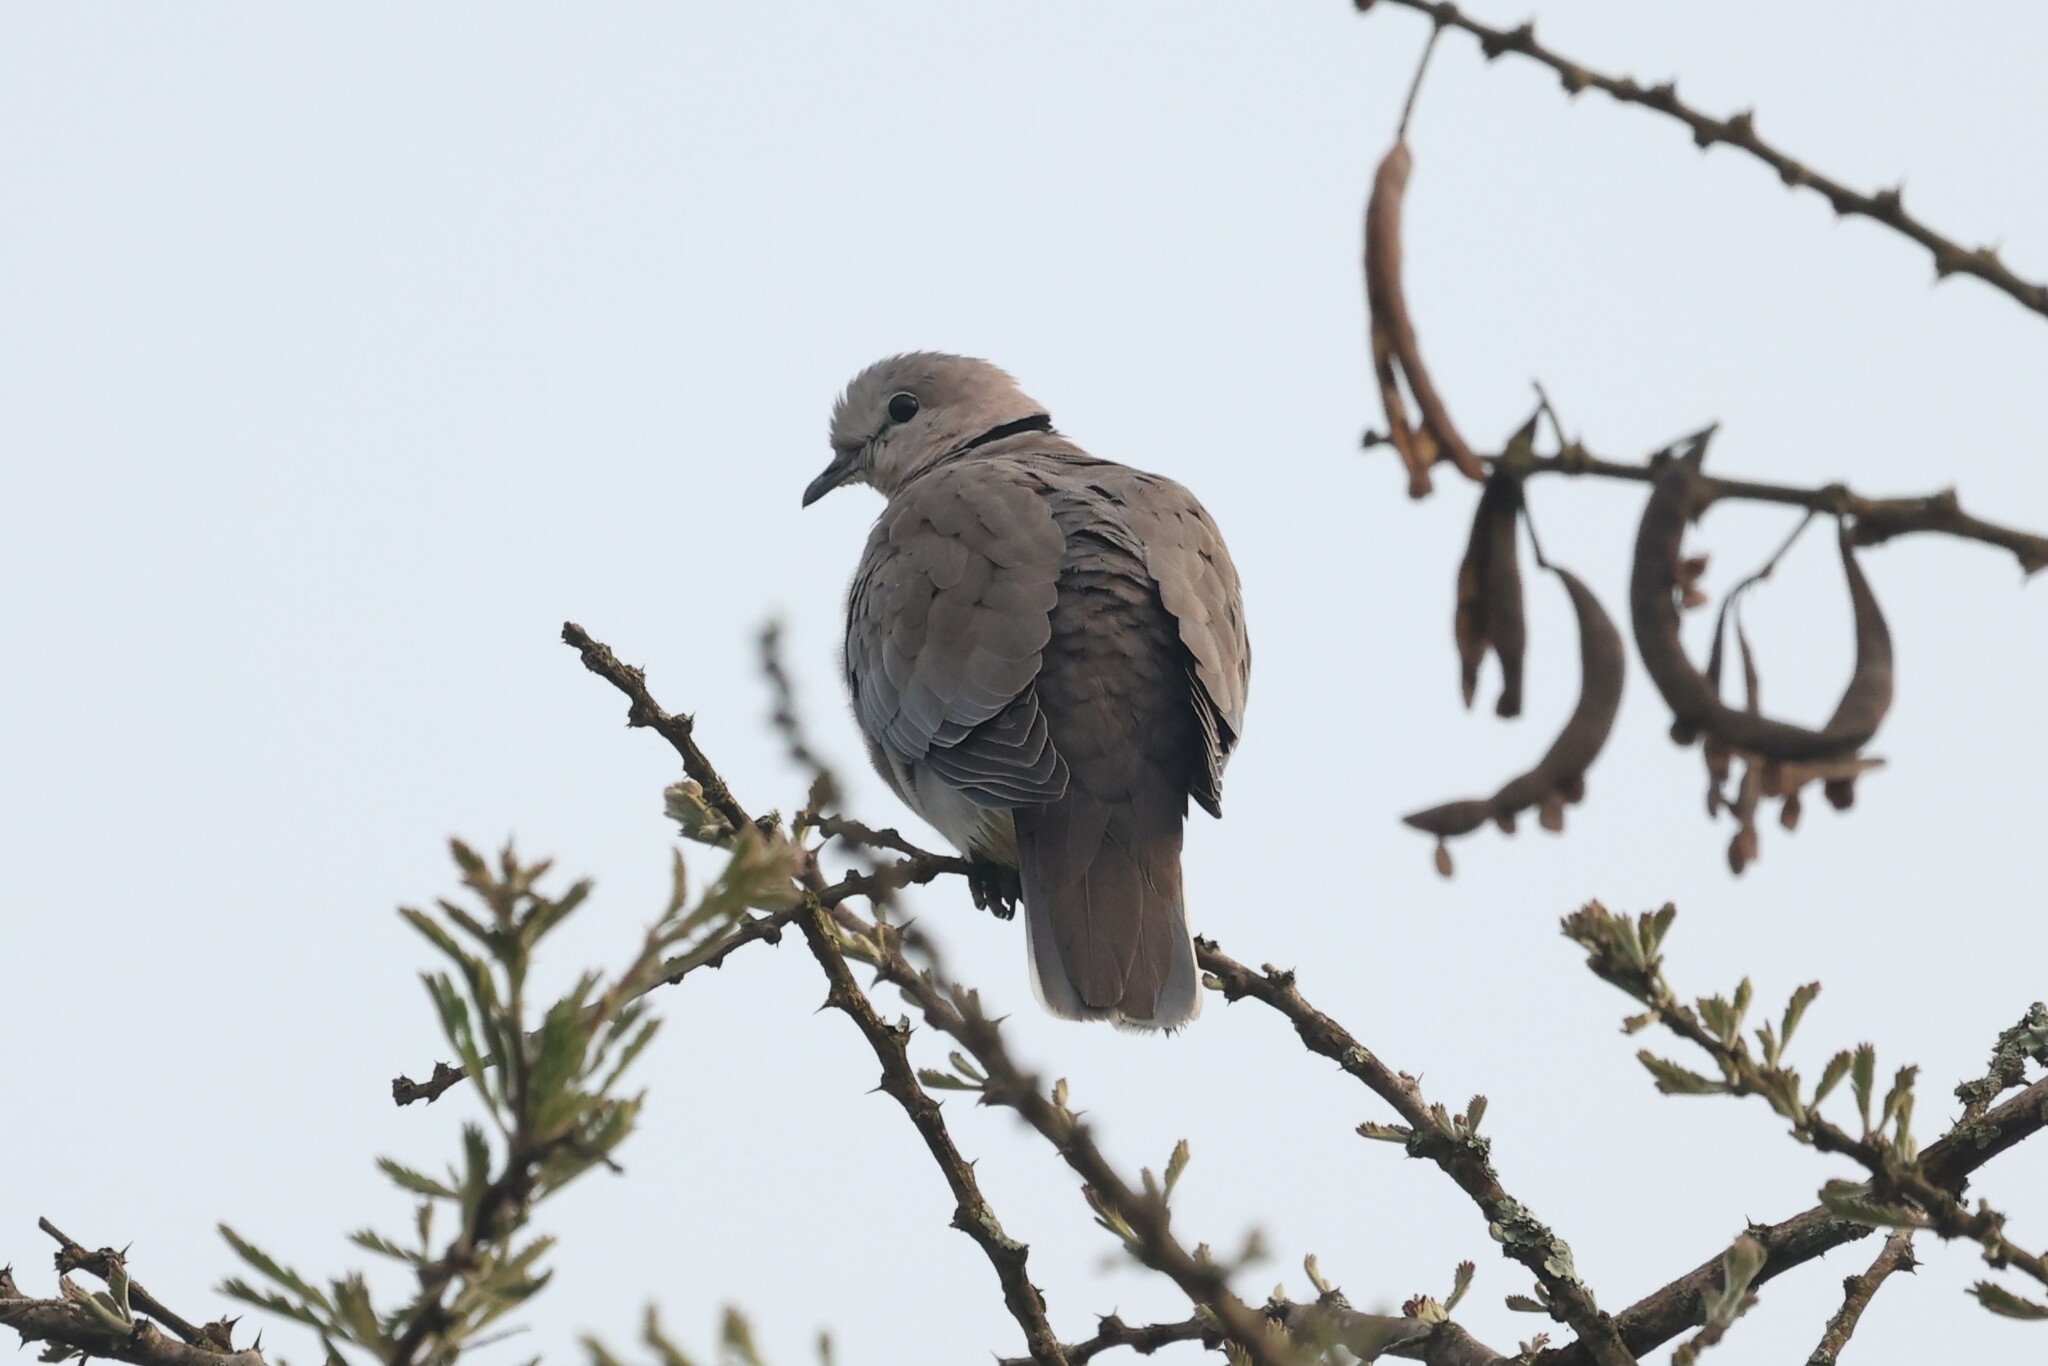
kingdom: Animalia
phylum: Chordata
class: Aves
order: Columbiformes
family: Columbidae
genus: Streptopelia
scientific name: Streptopelia capicola
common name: Ring-necked dove
